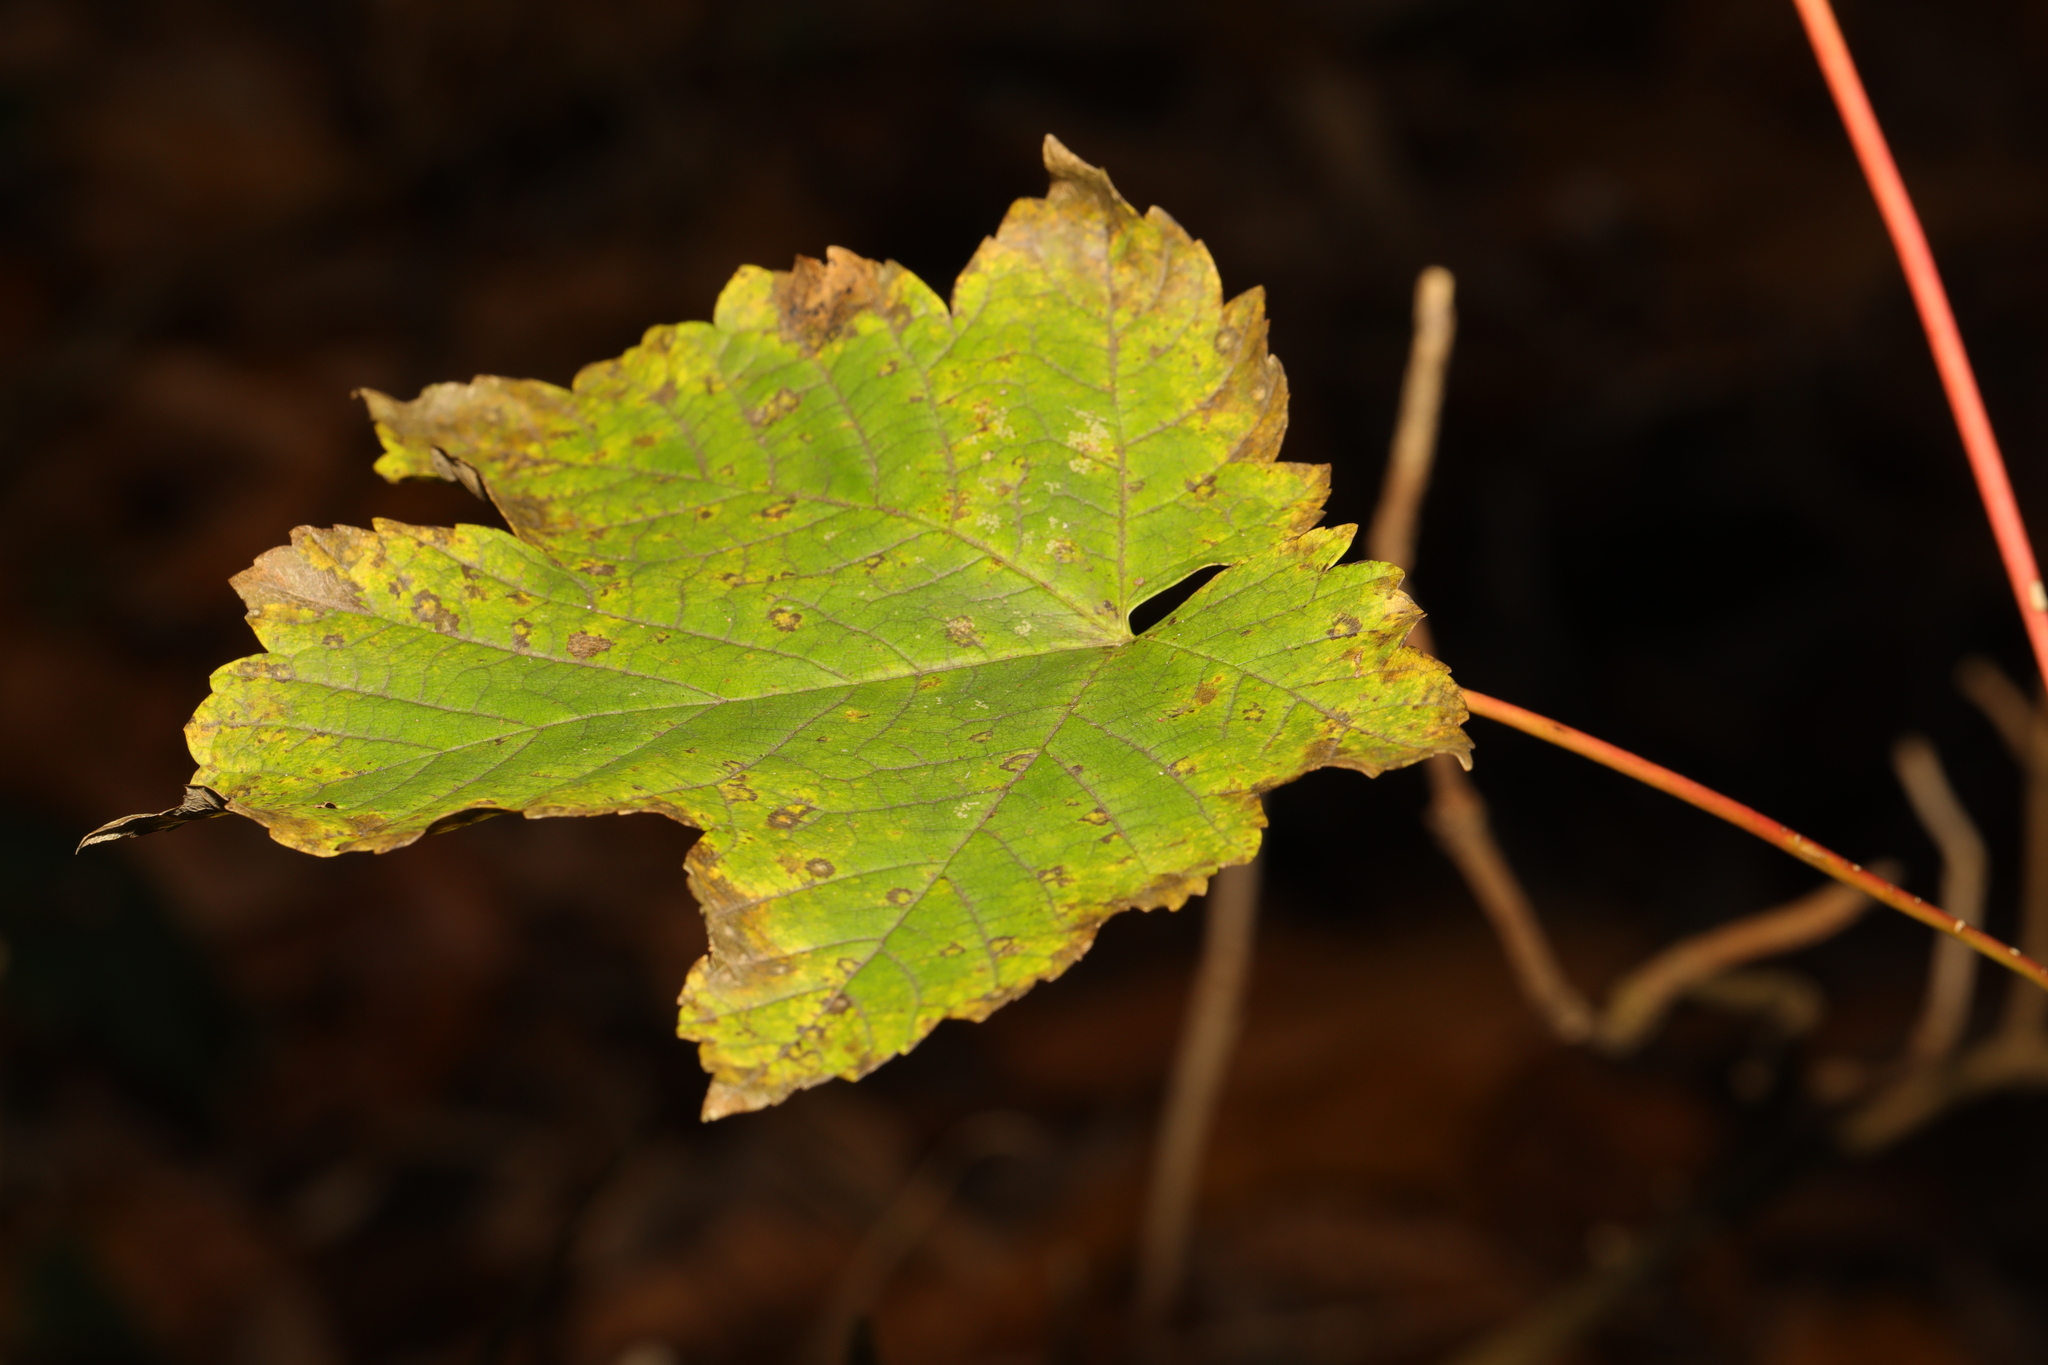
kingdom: Plantae
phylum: Tracheophyta
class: Magnoliopsida
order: Sapindales
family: Sapindaceae
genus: Acer
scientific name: Acer pseudoplatanus
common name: Sycamore
